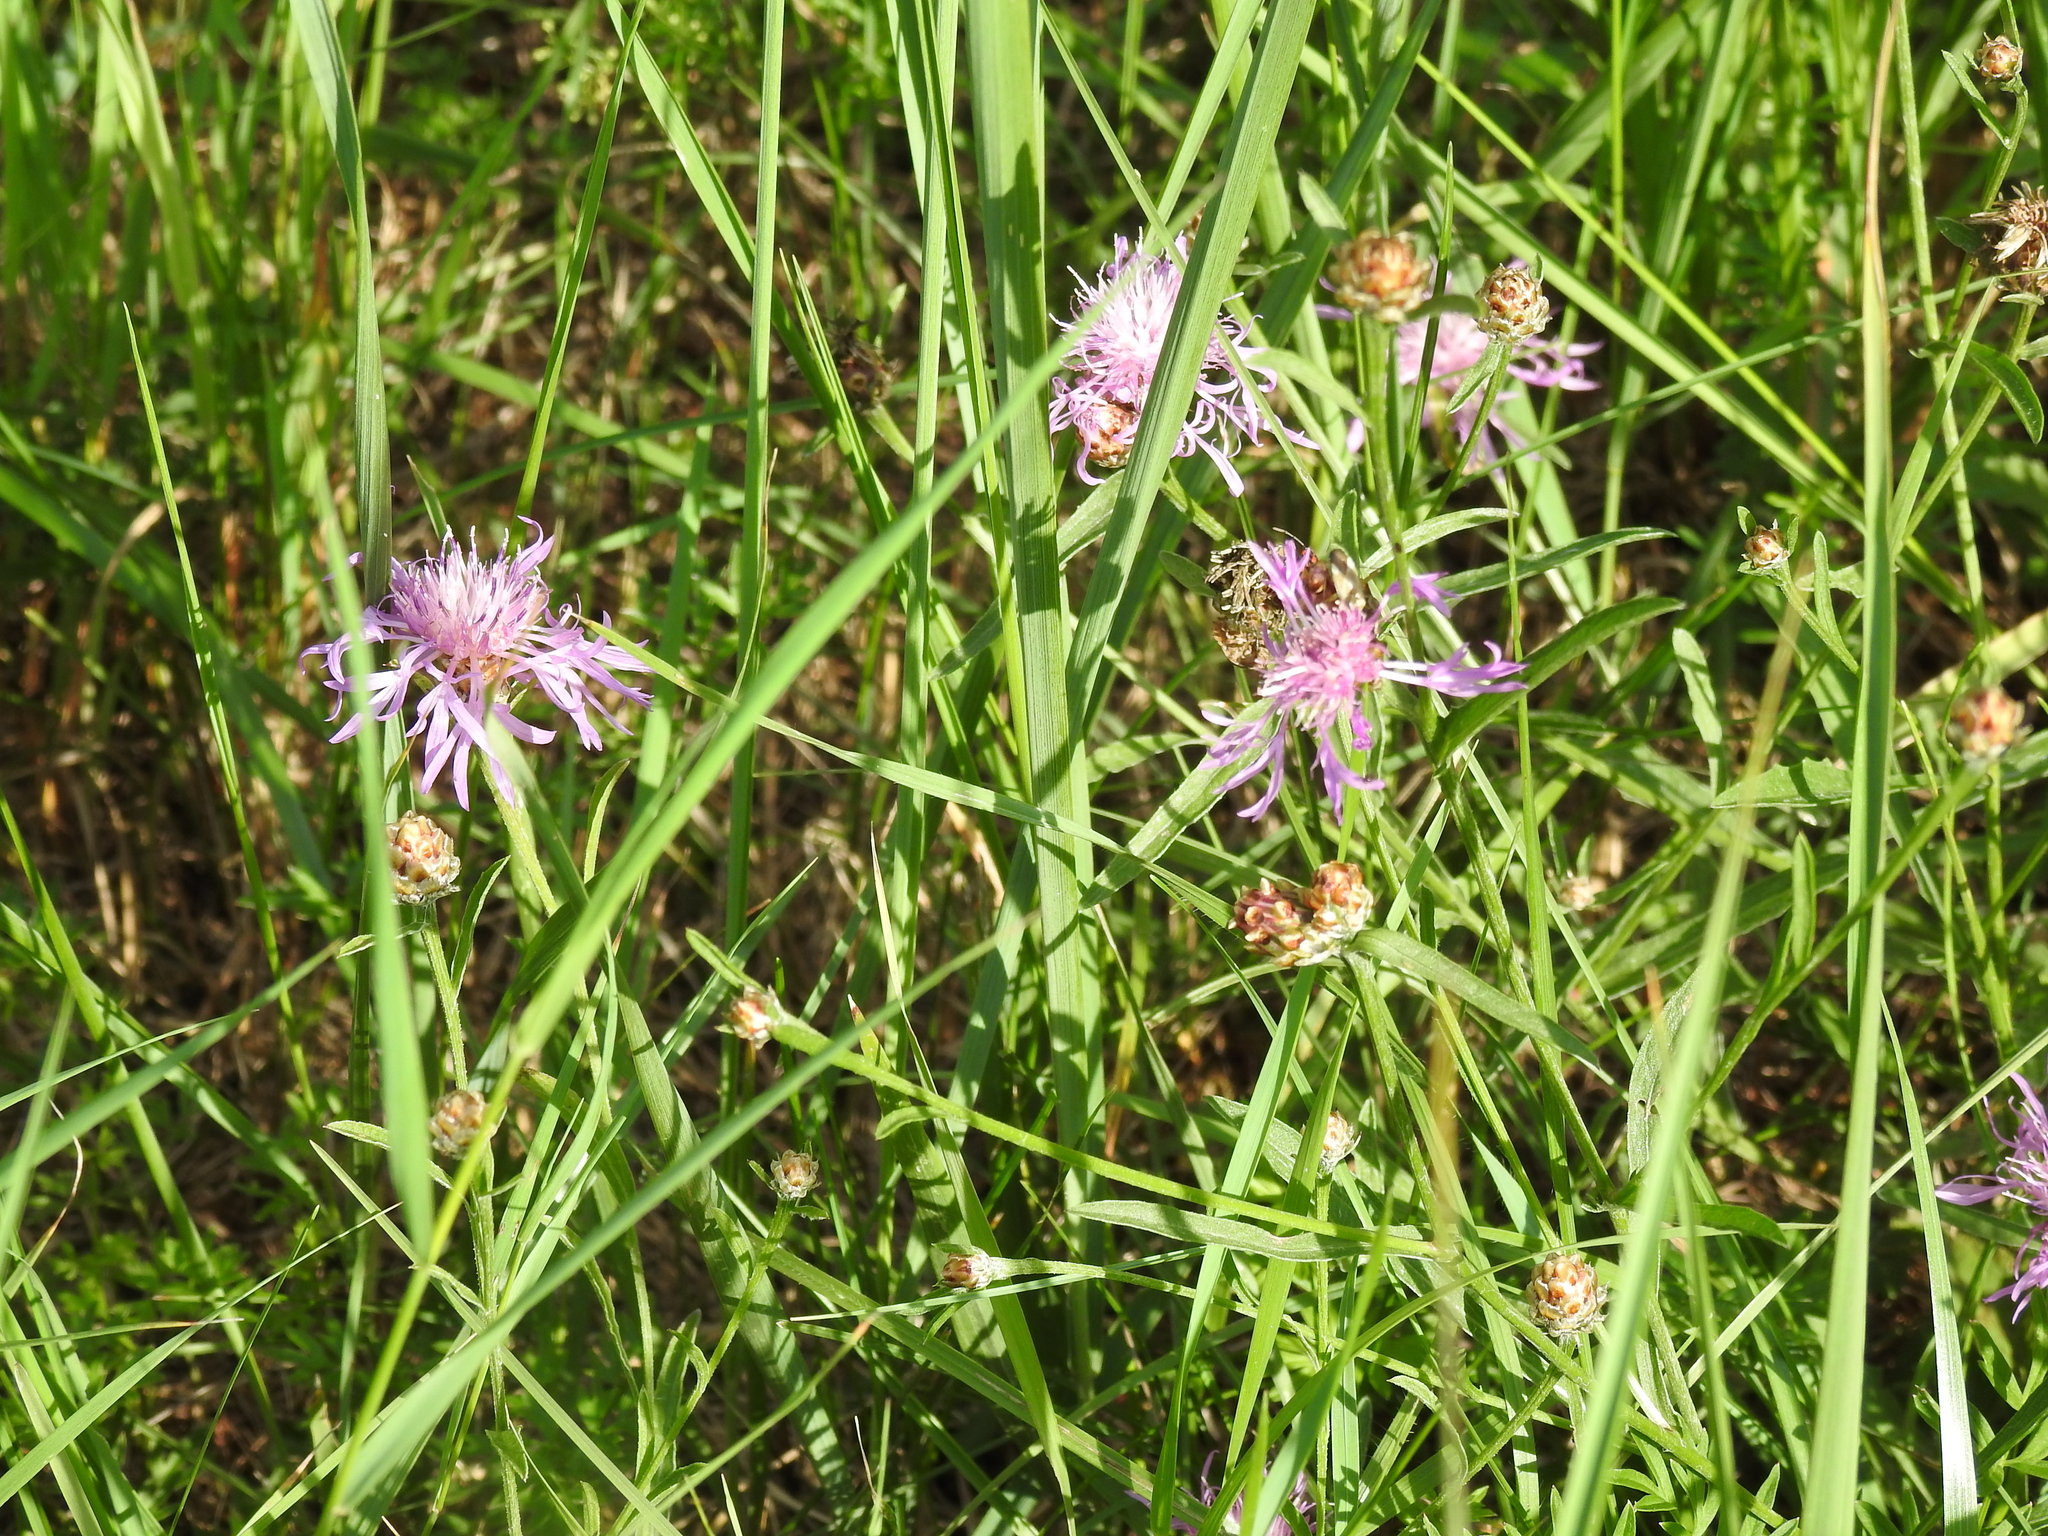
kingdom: Plantae
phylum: Tracheophyta
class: Magnoliopsida
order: Asterales
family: Asteraceae
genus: Centaurea
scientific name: Centaurea jacea
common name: Brown knapweed
